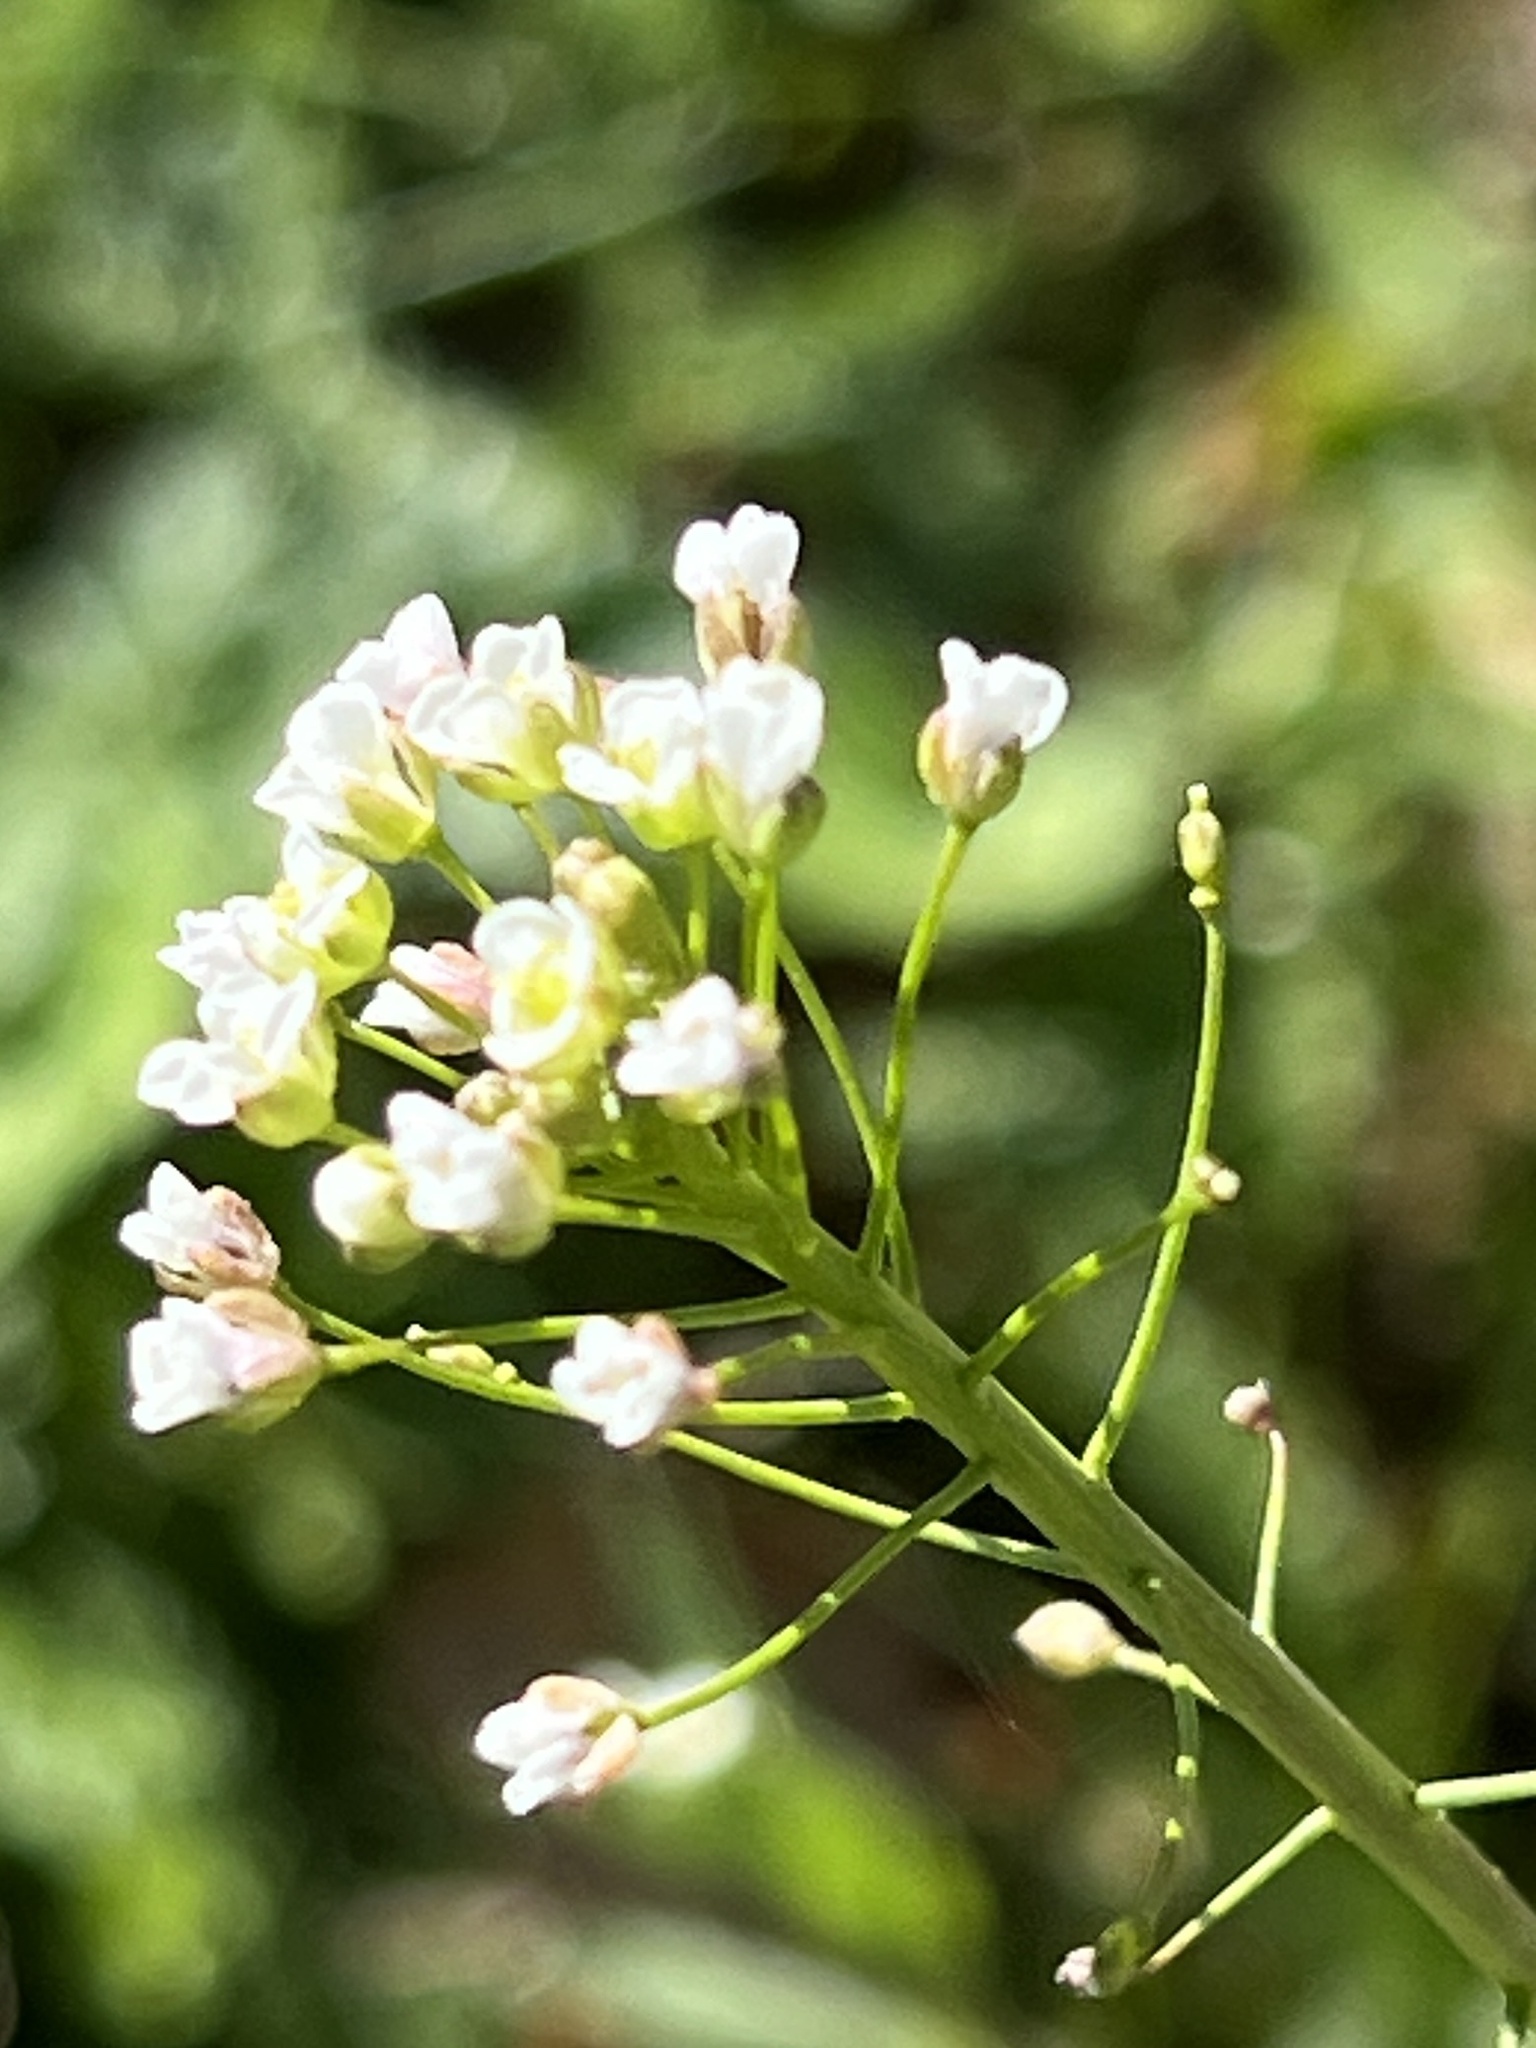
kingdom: Plantae
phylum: Tracheophyta
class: Magnoliopsida
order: Brassicales
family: Brassicaceae
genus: Capsella
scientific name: Capsella bursa-pastoris
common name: Shepherd's purse
